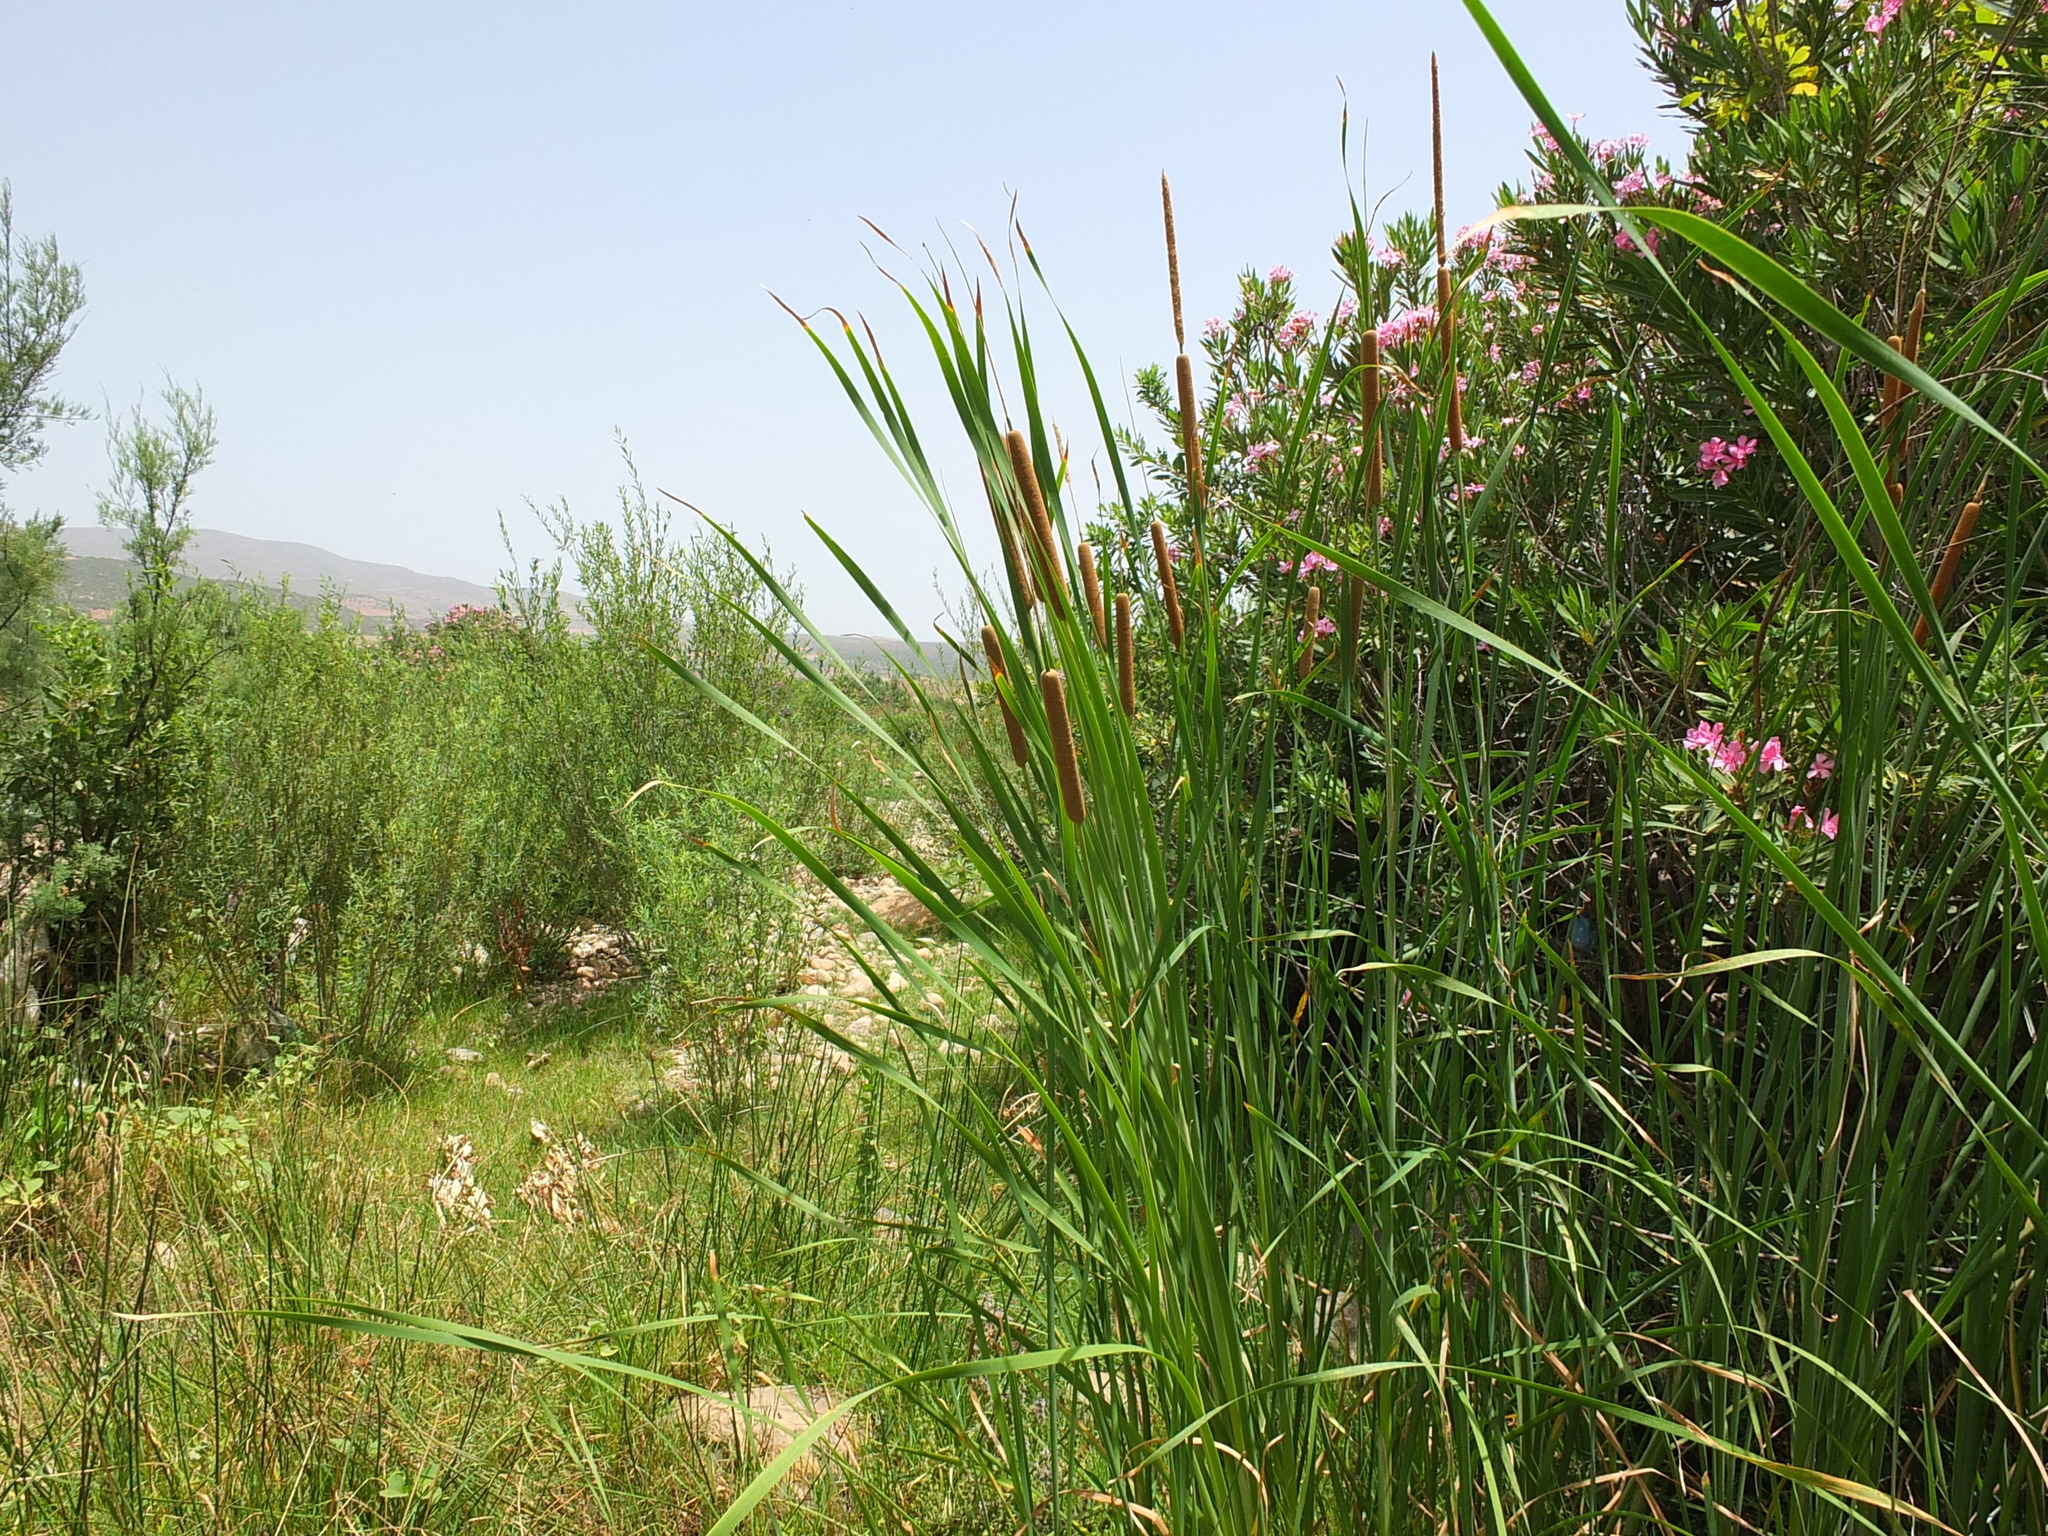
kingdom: Plantae
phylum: Tracheophyta
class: Liliopsida
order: Poales
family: Typhaceae
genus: Typha
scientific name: Typha domingensis
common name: Southern cattail
